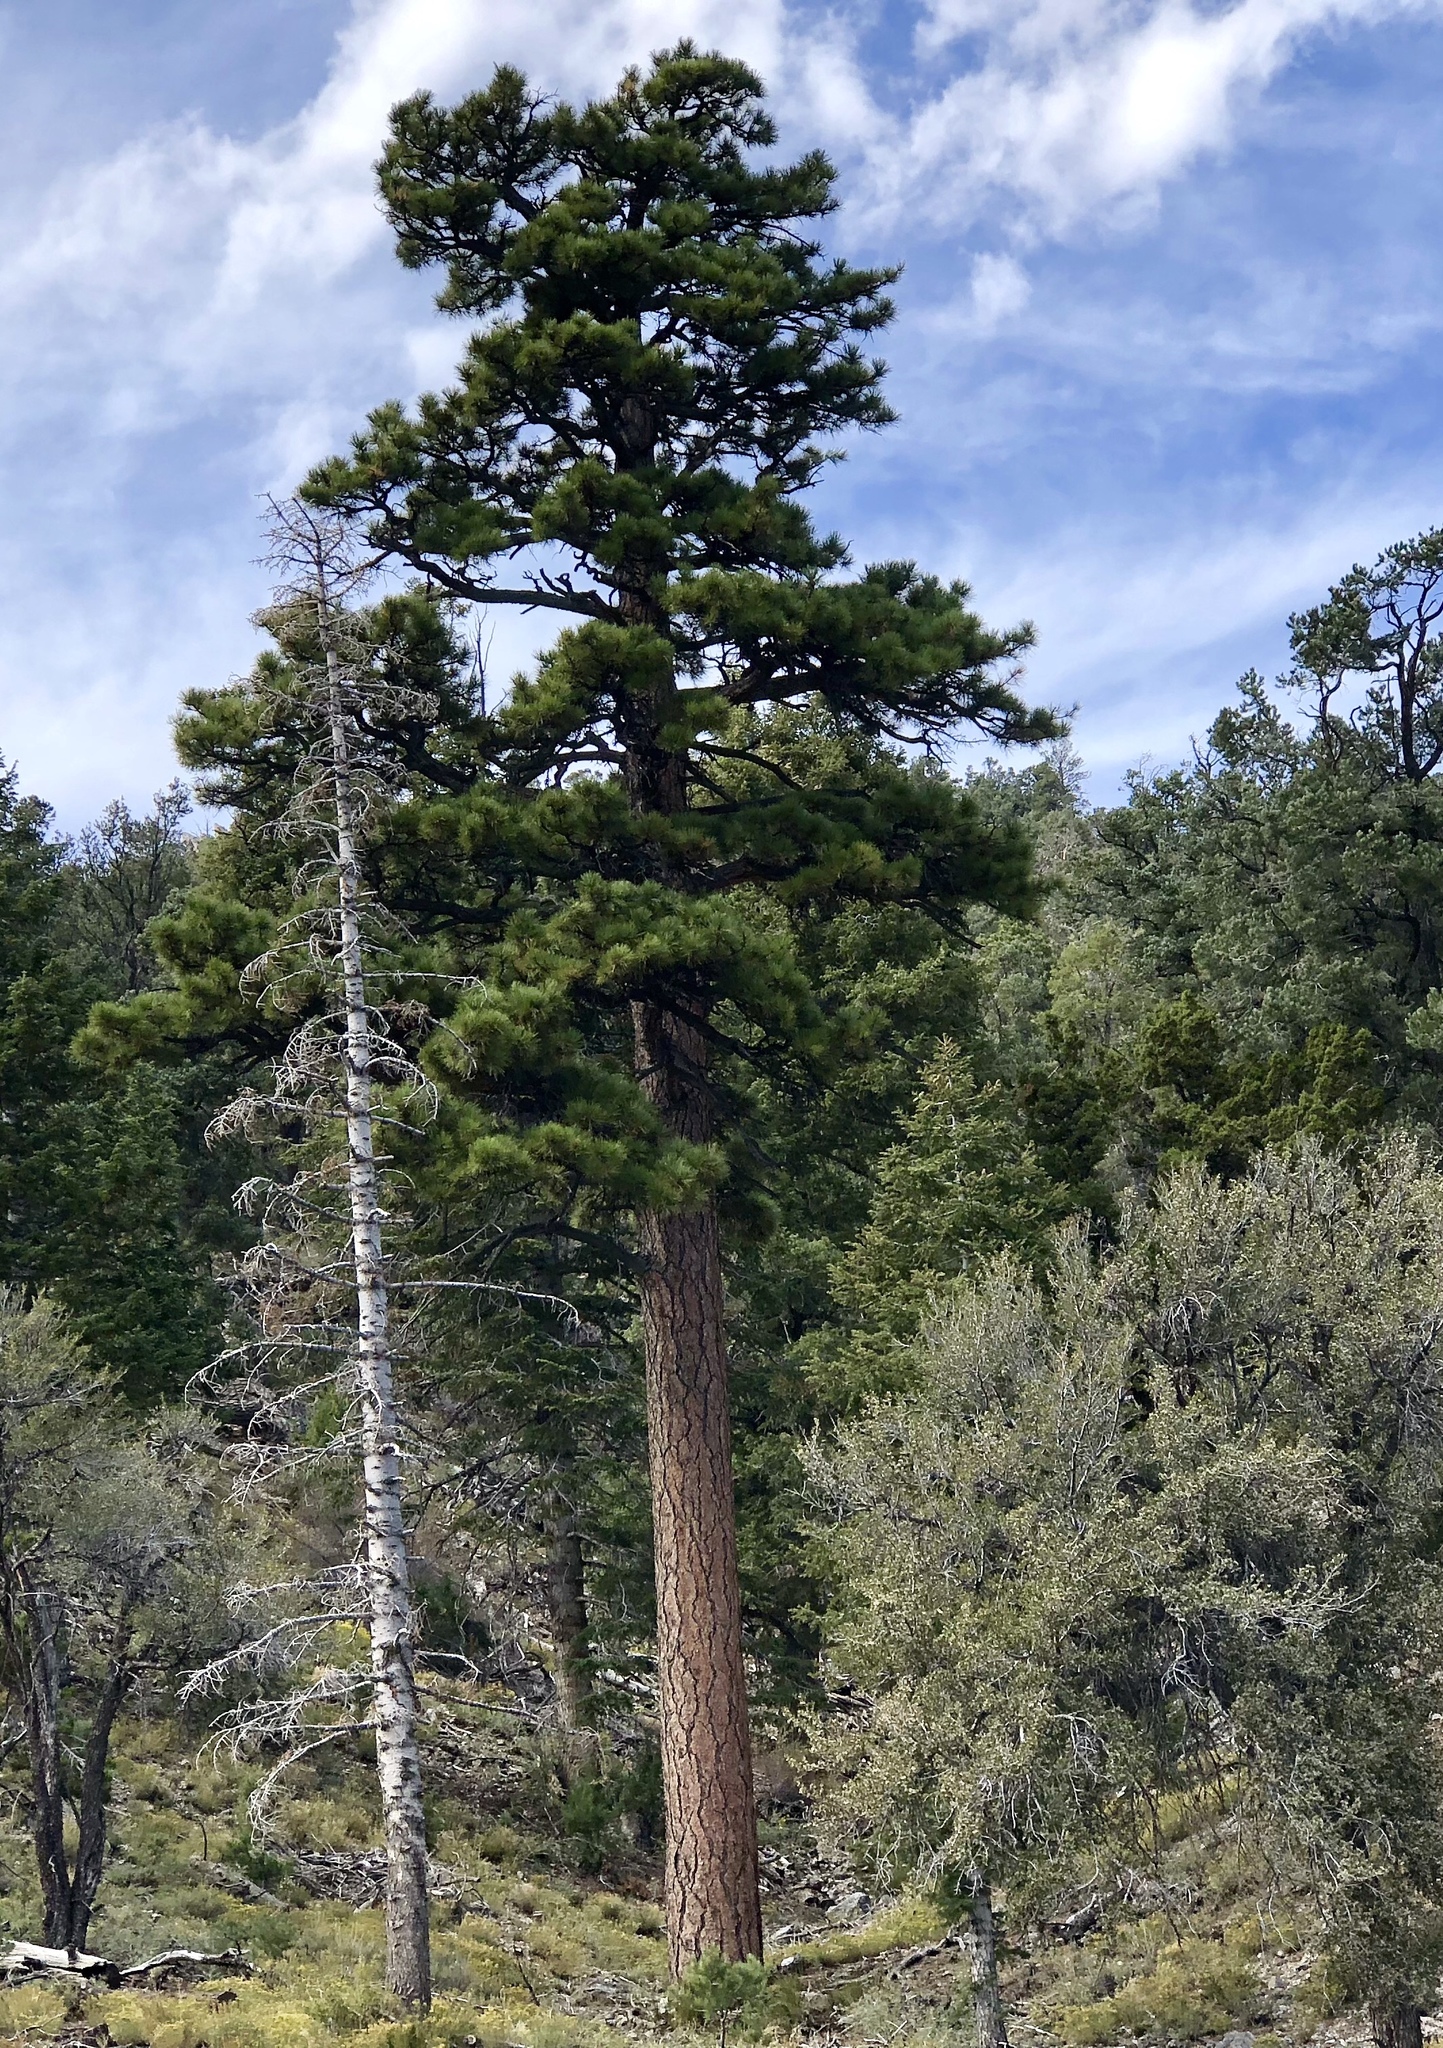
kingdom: Plantae
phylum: Tracheophyta
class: Pinopsida
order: Pinales
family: Pinaceae
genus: Pinus
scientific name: Pinus ponderosa
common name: Western yellow-pine
